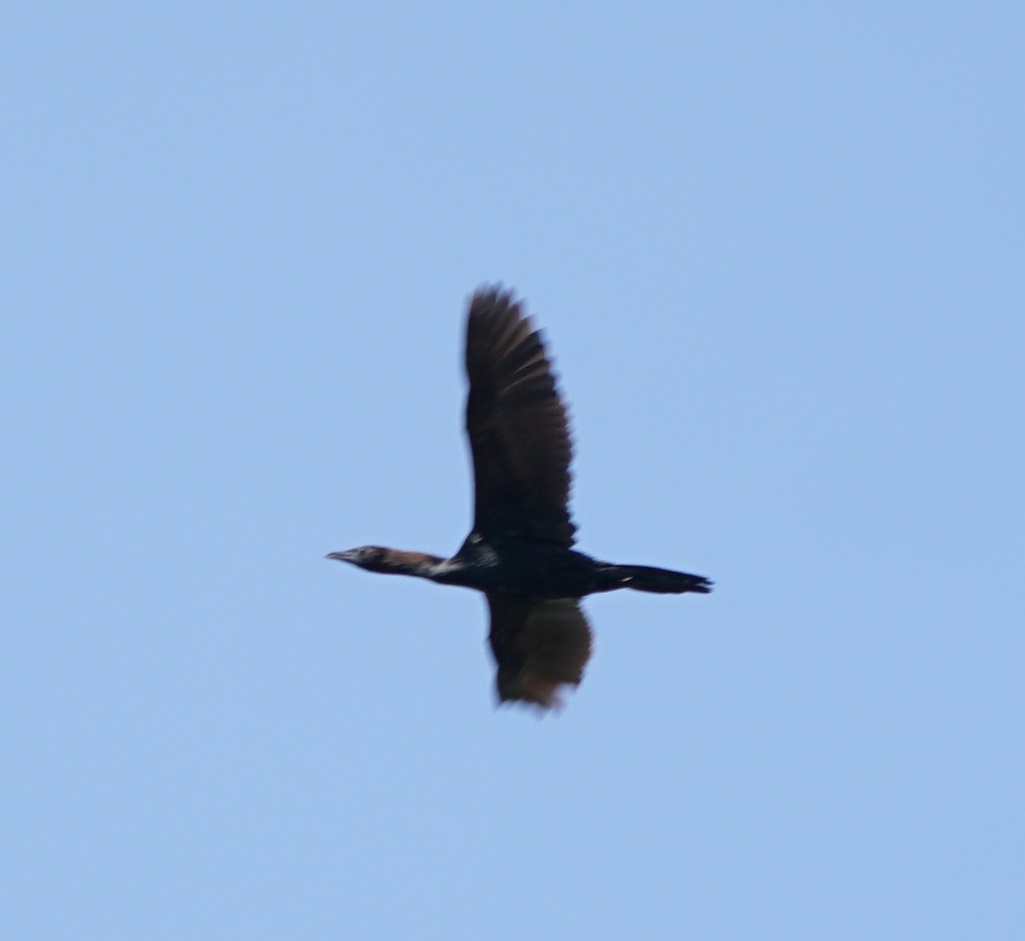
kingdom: Animalia
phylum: Chordata
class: Aves
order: Suliformes
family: Phalacrocoracidae
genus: Microcarbo
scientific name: Microcarbo pygmaeus
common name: Pygmy cormorant
